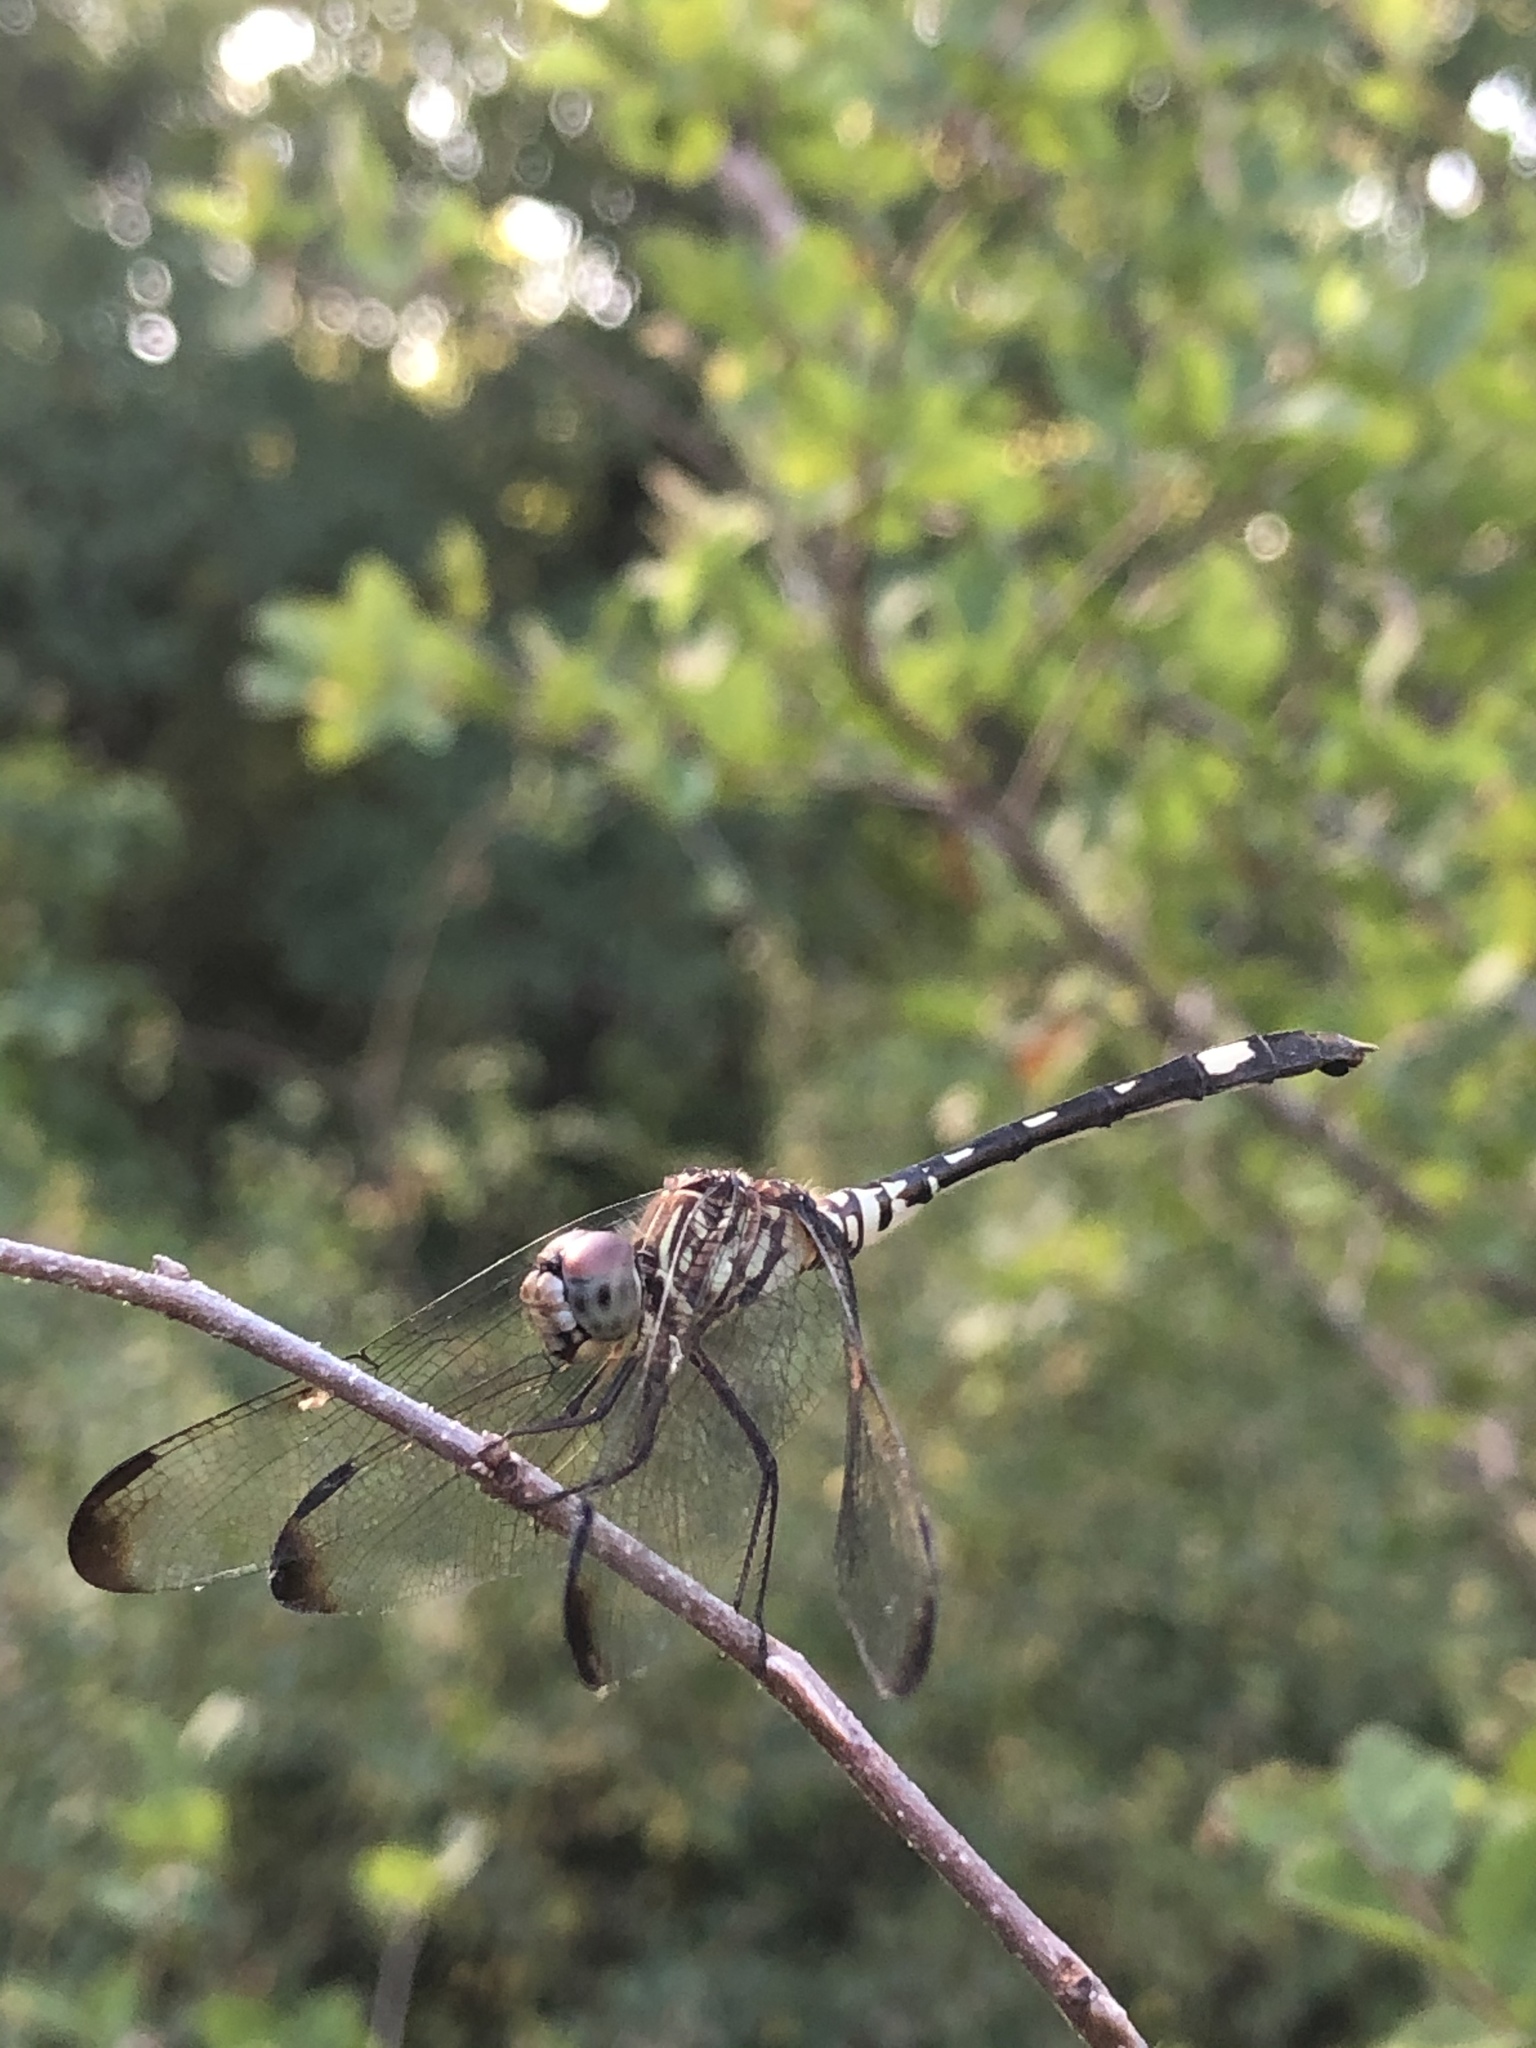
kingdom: Animalia
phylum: Arthropoda
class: Insecta
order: Odonata
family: Libellulidae
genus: Dythemis
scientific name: Dythemis velox
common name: Swift setwing
